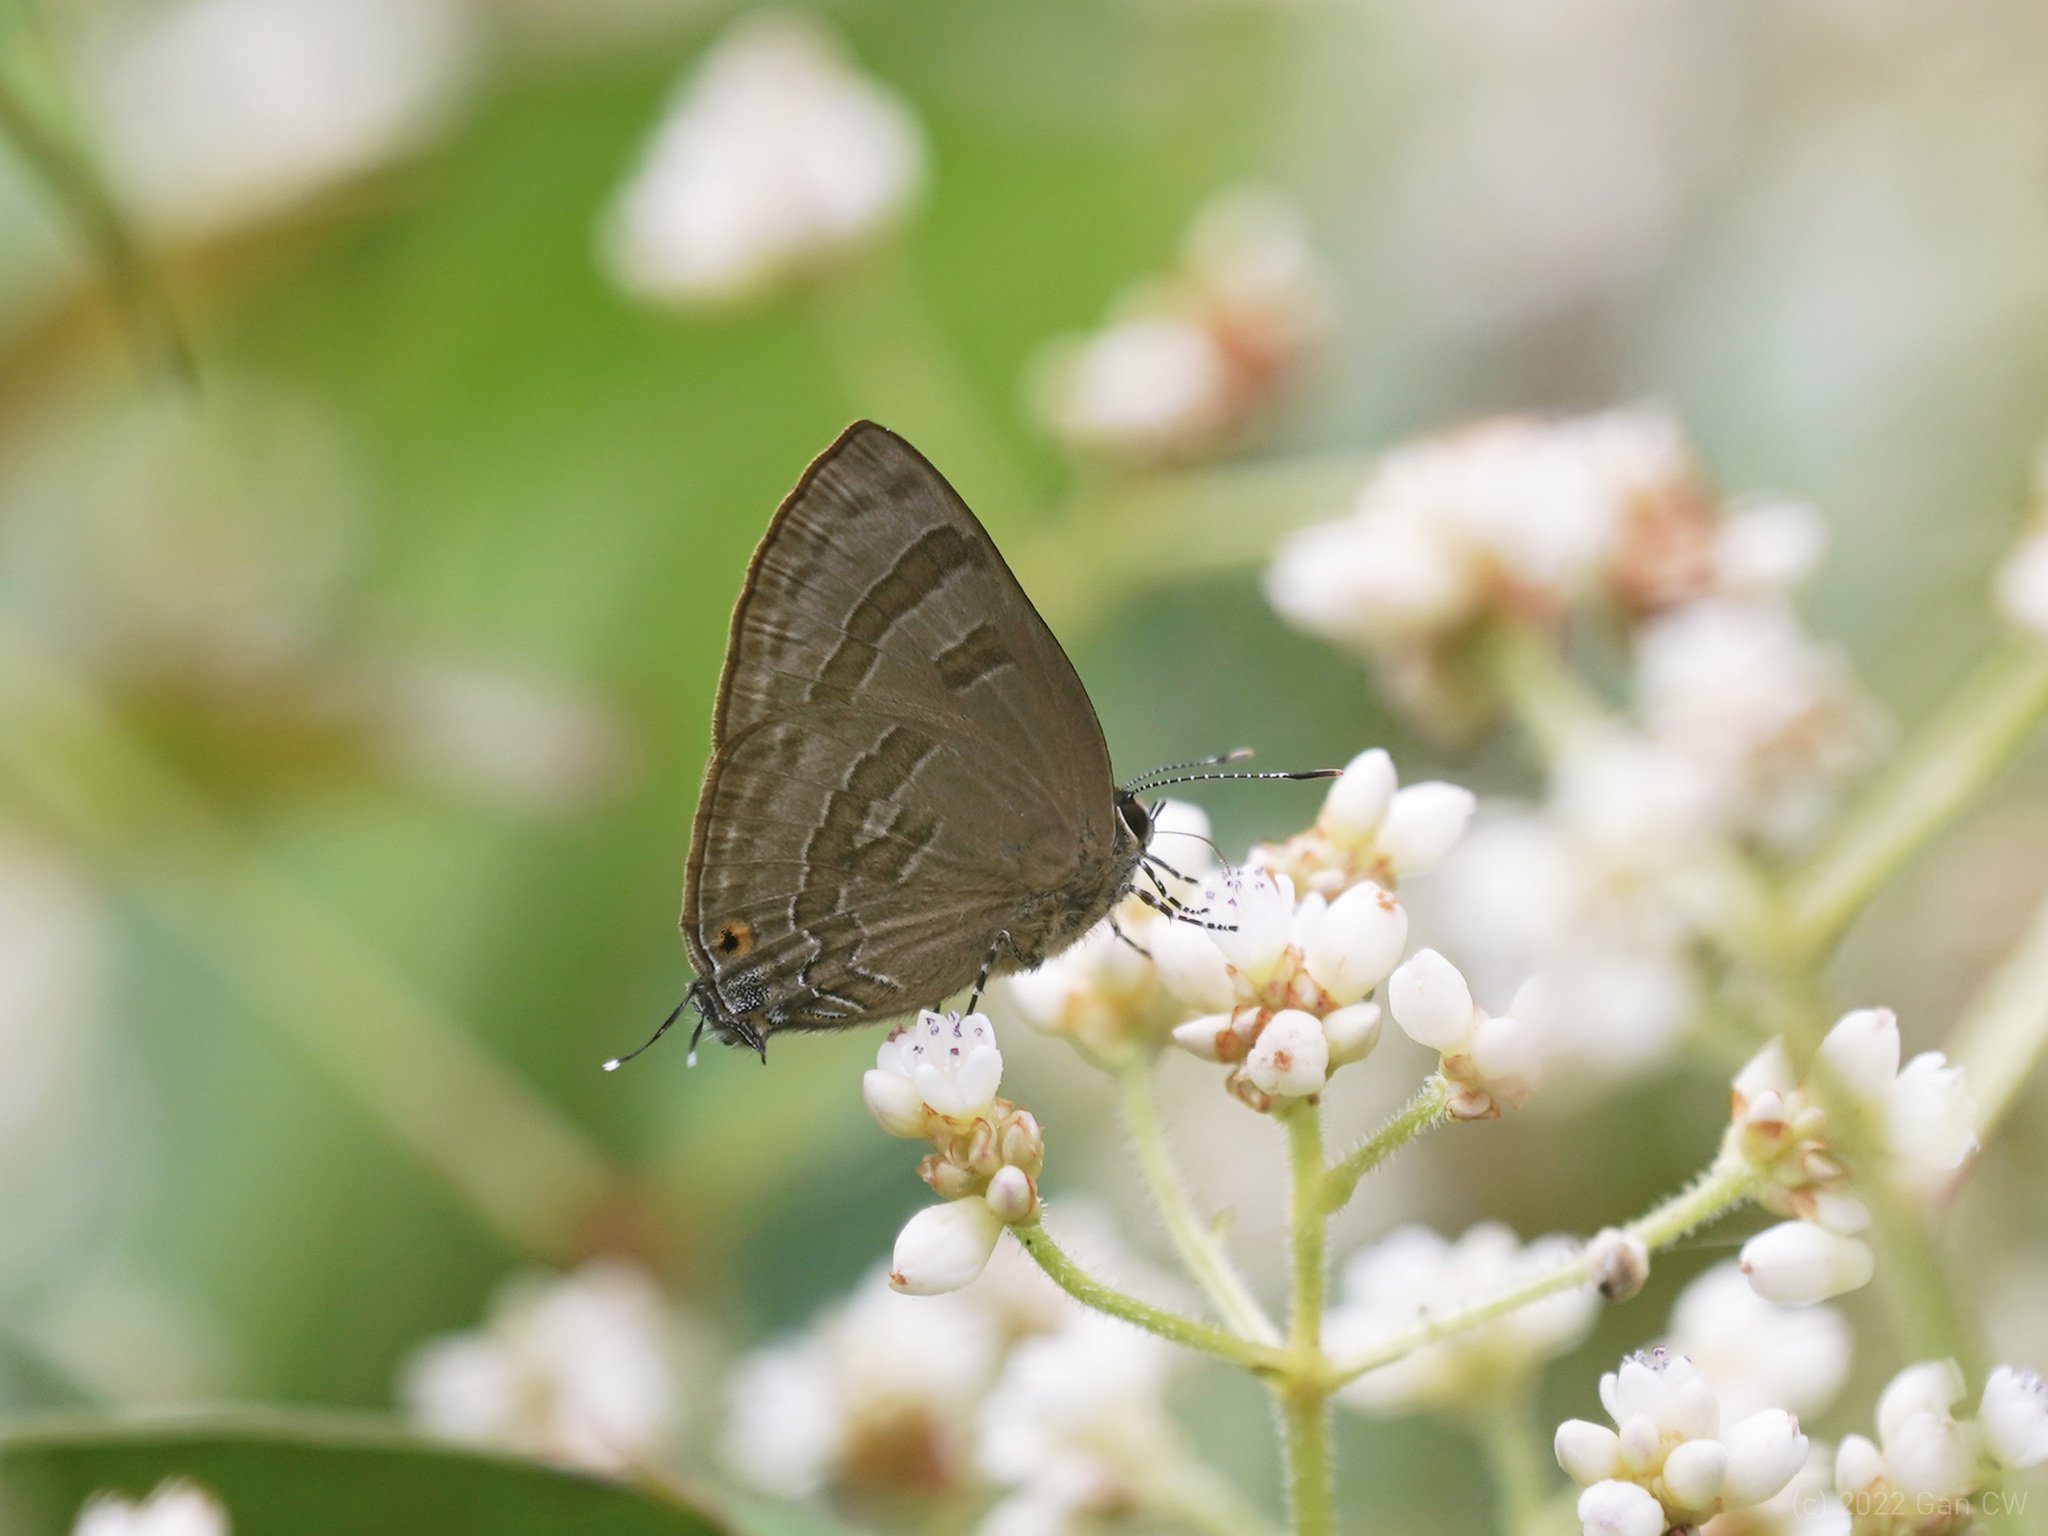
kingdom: Animalia
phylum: Arthropoda
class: Insecta
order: Lepidoptera
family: Lycaenidae
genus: Rapala
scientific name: Rapala rhoecus
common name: Brilliant flash
